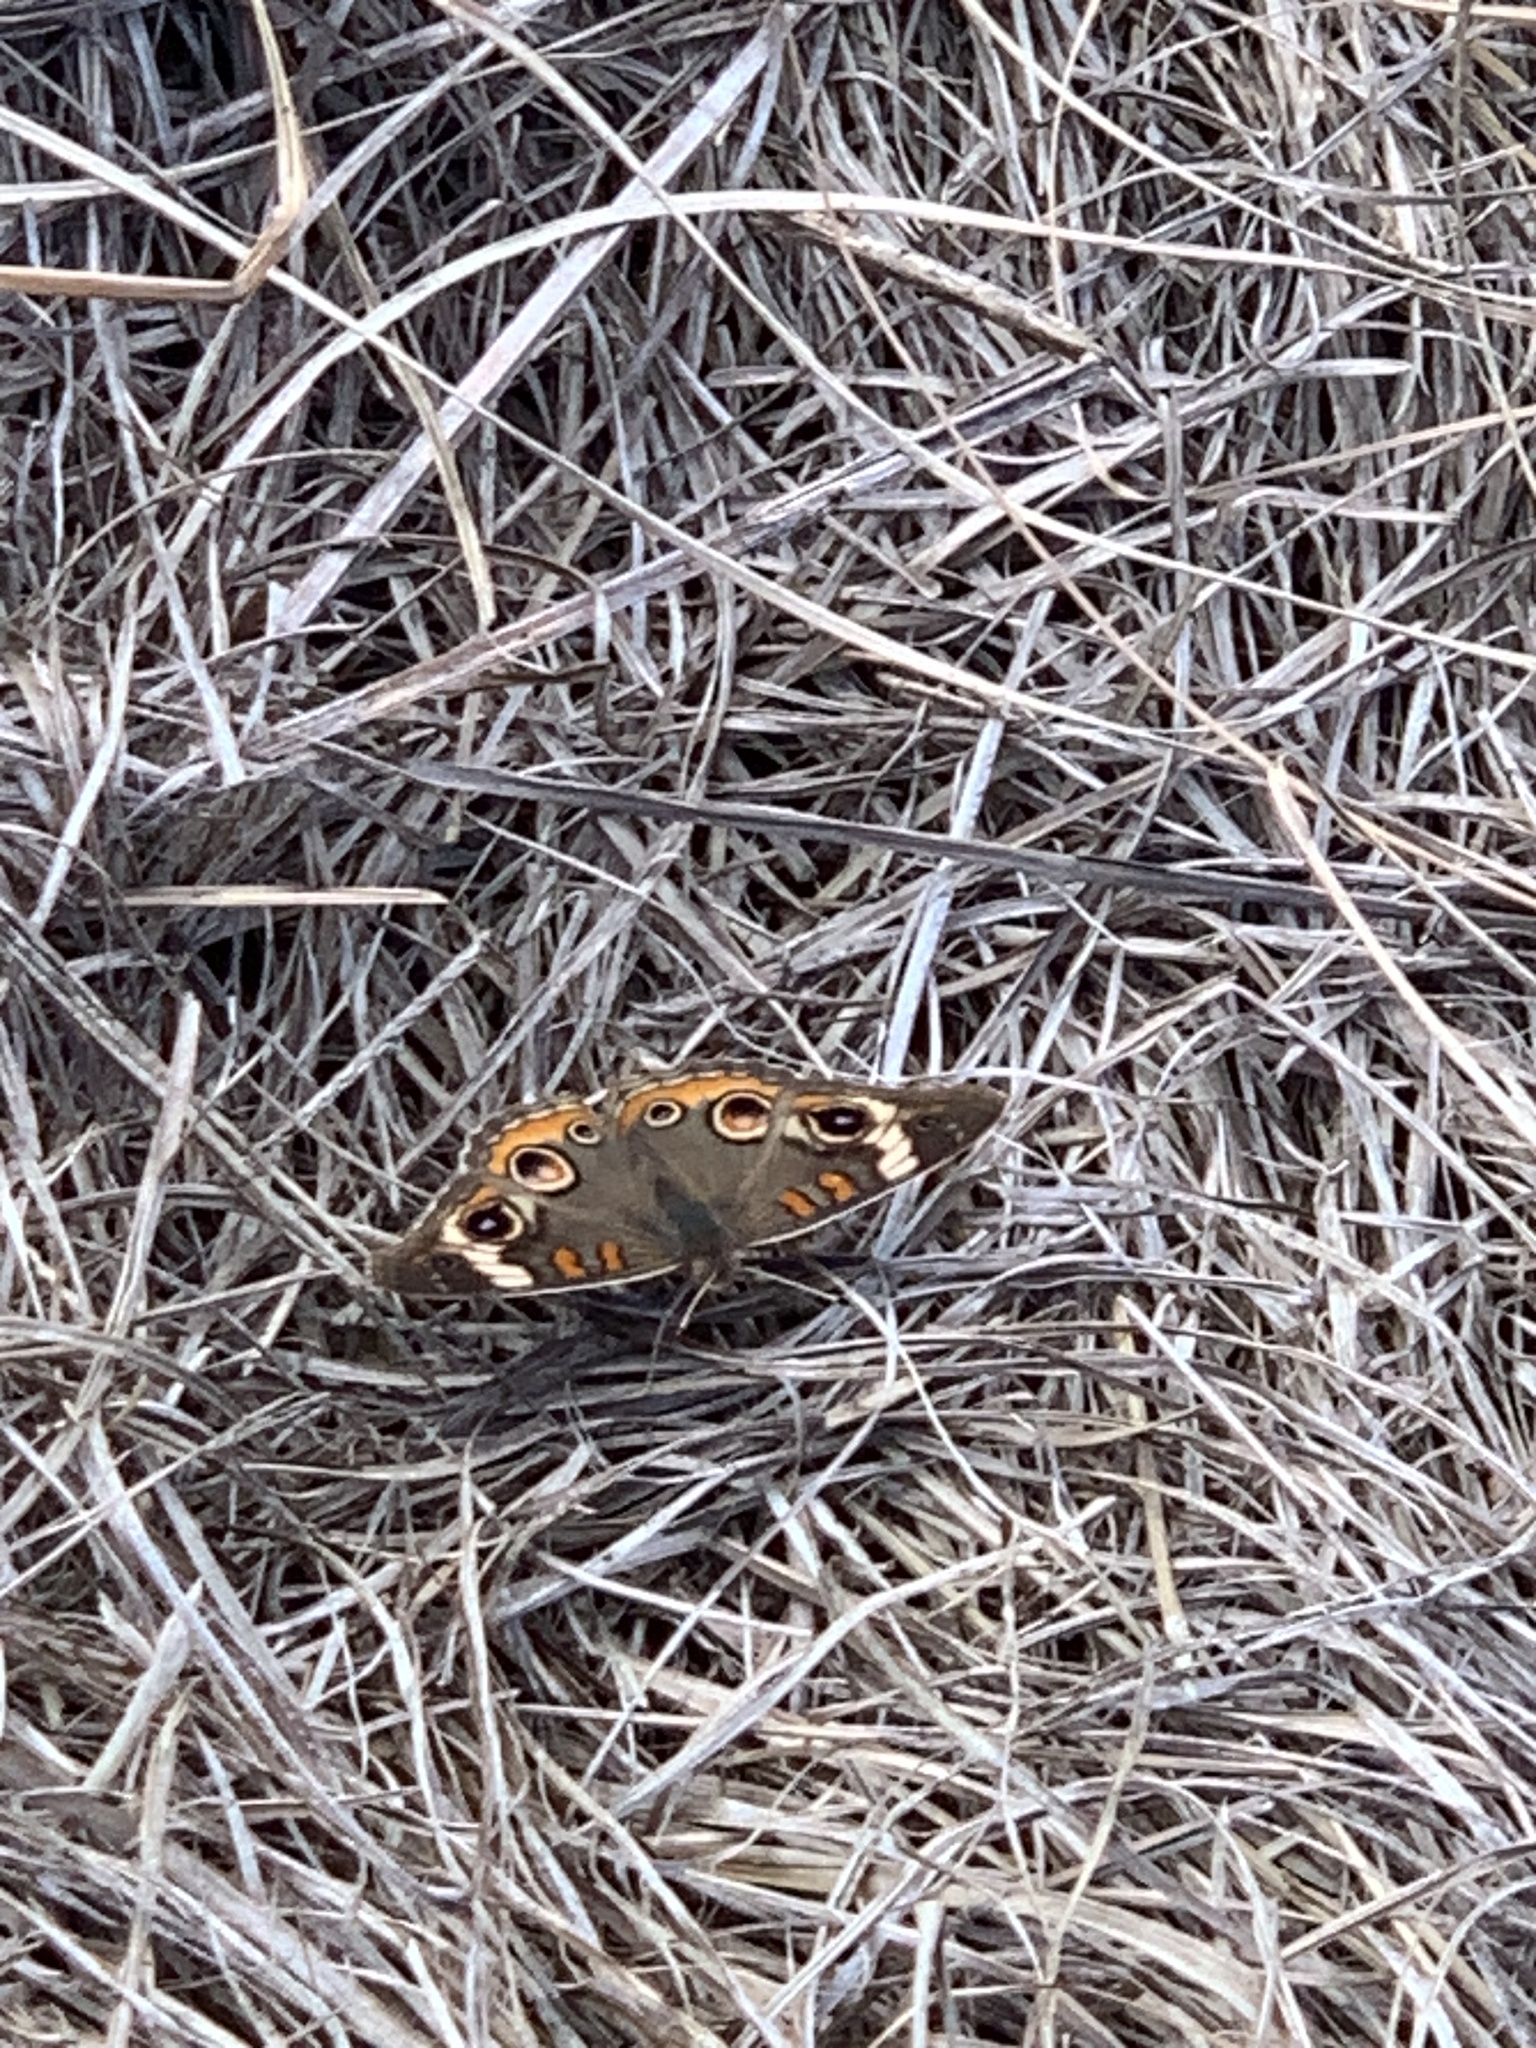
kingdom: Animalia
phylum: Arthropoda
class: Insecta
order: Lepidoptera
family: Nymphalidae
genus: Junonia
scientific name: Junonia coenia
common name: Common buckeye
